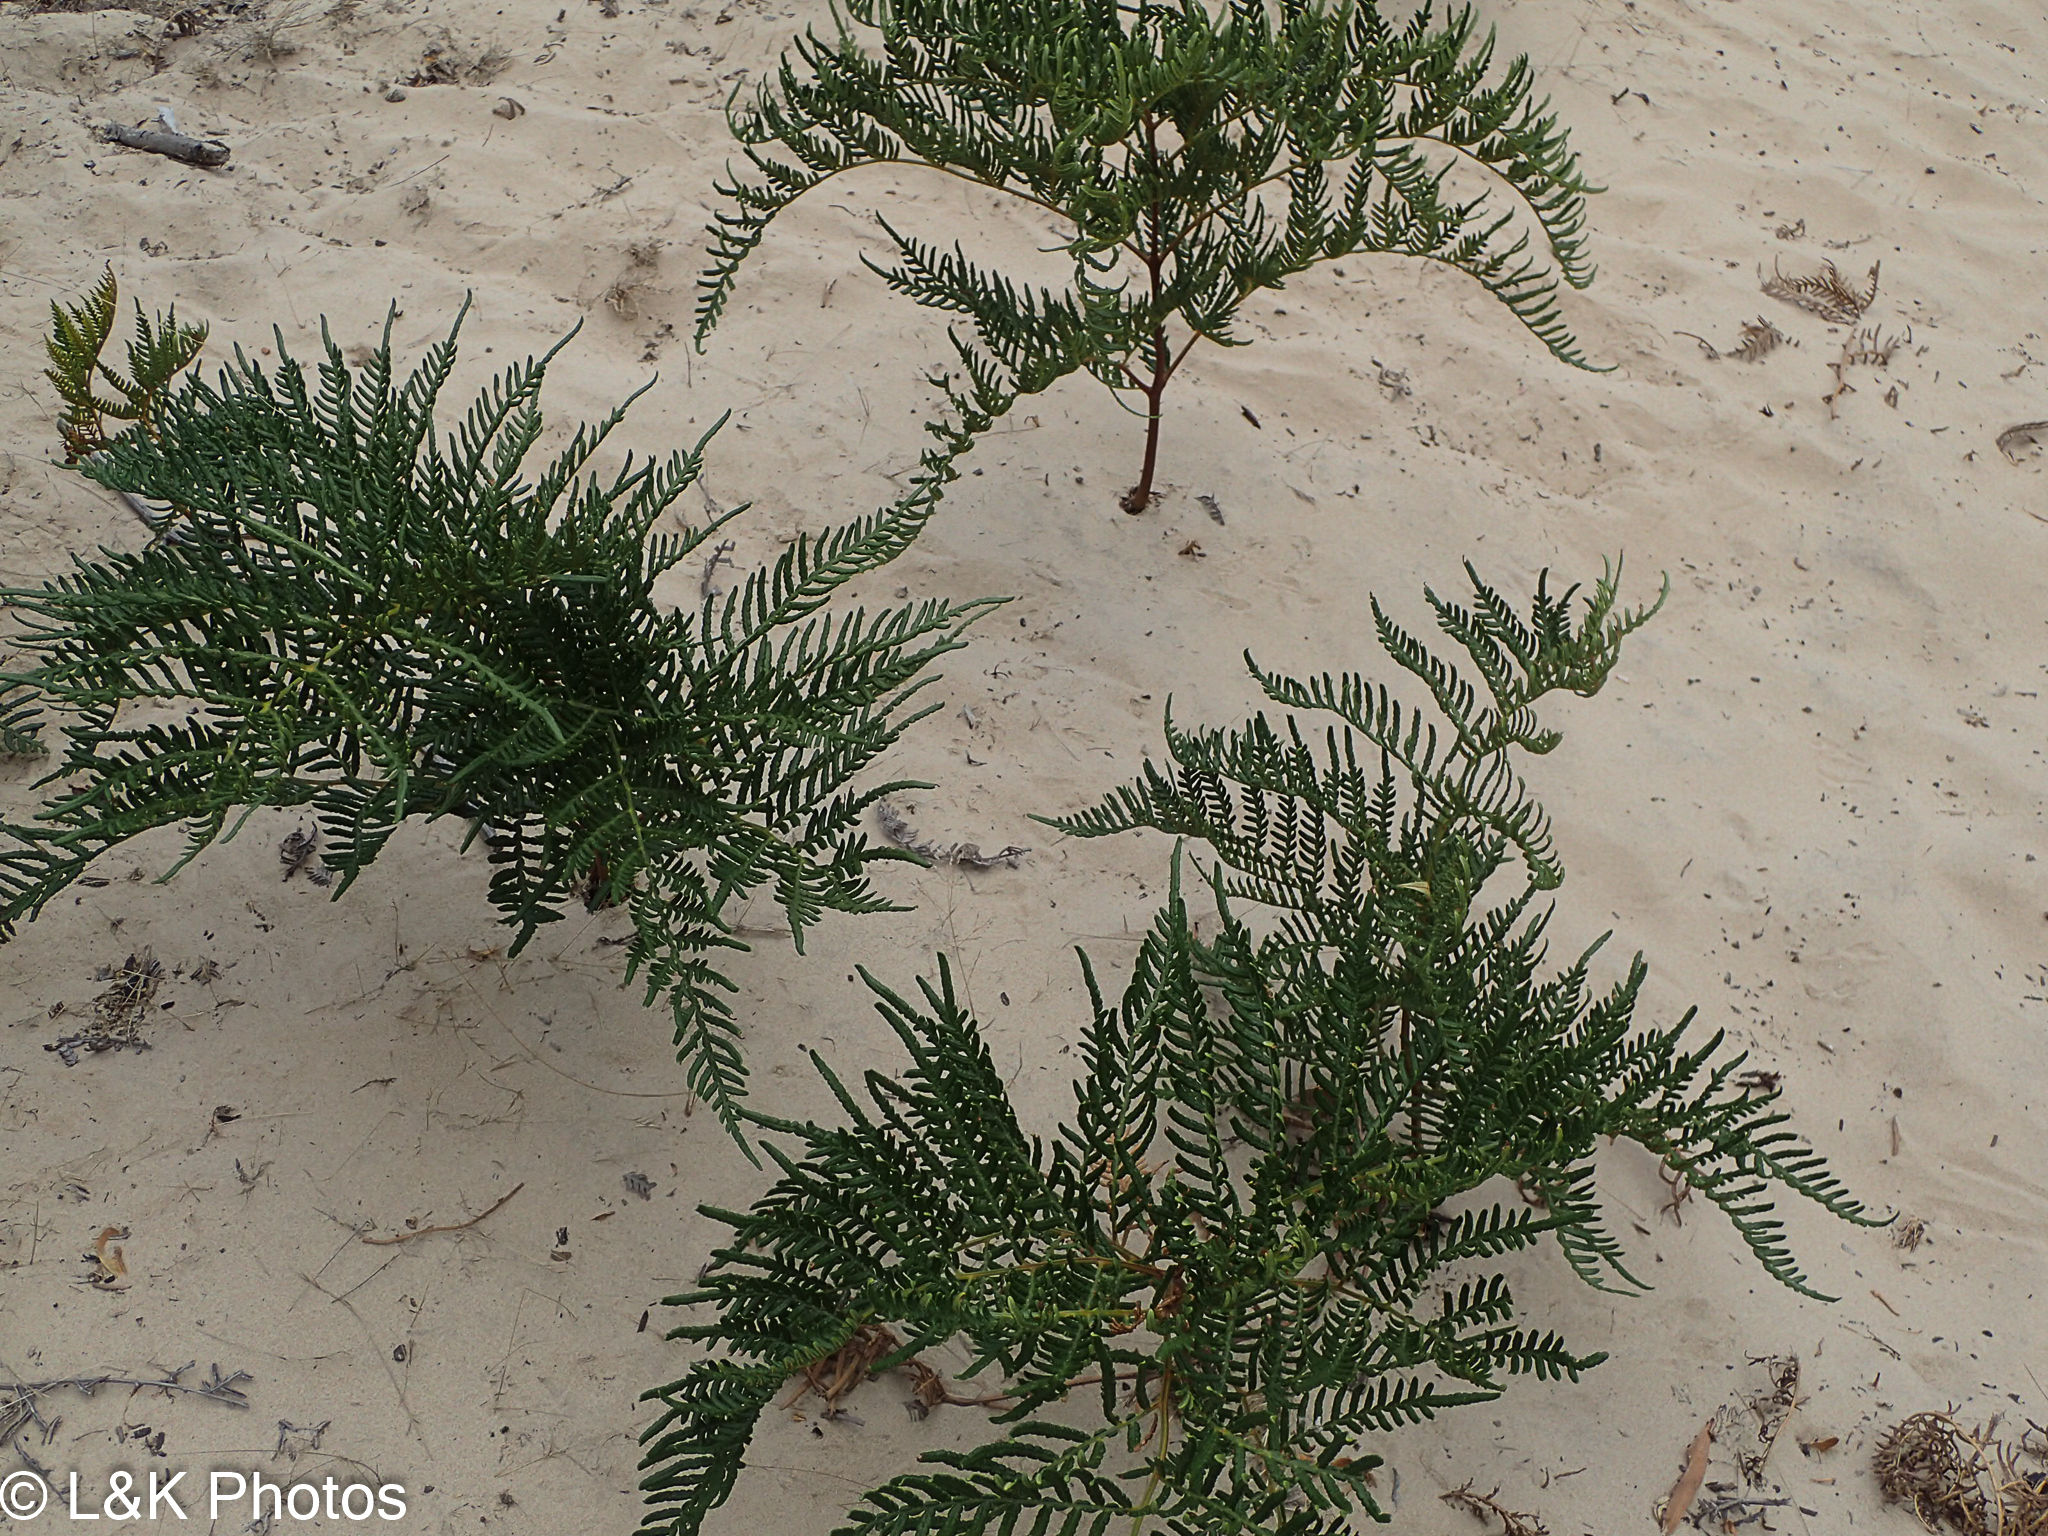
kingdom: Plantae
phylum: Tracheophyta
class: Polypodiopsida
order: Polypodiales
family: Dennstaedtiaceae
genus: Pteridium
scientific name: Pteridium esculentum
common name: Bracken fern
